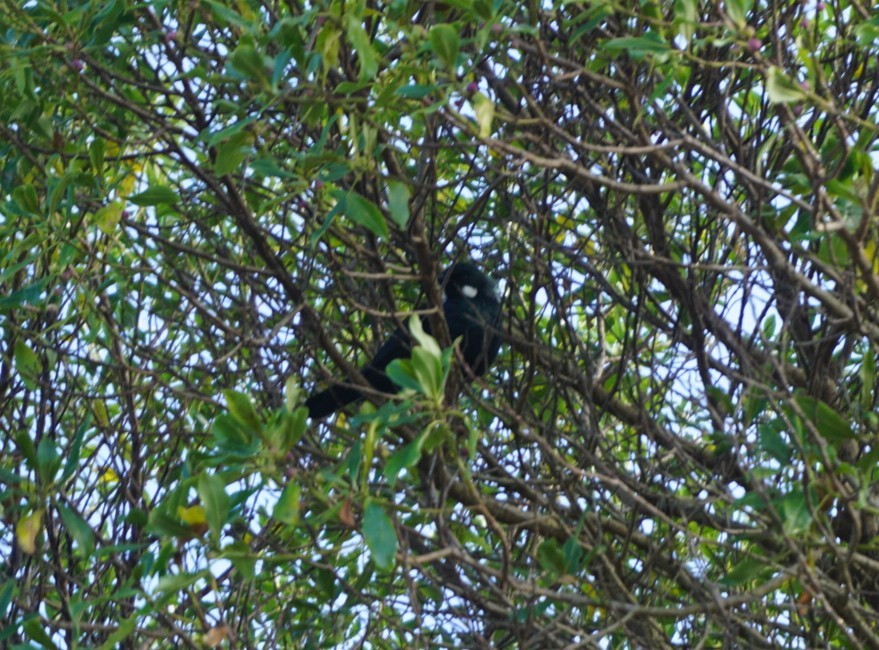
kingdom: Animalia
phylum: Chordata
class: Aves
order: Passeriformes
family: Meliphagidae
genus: Prosthemadera
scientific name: Prosthemadera novaeseelandiae
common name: Tui
